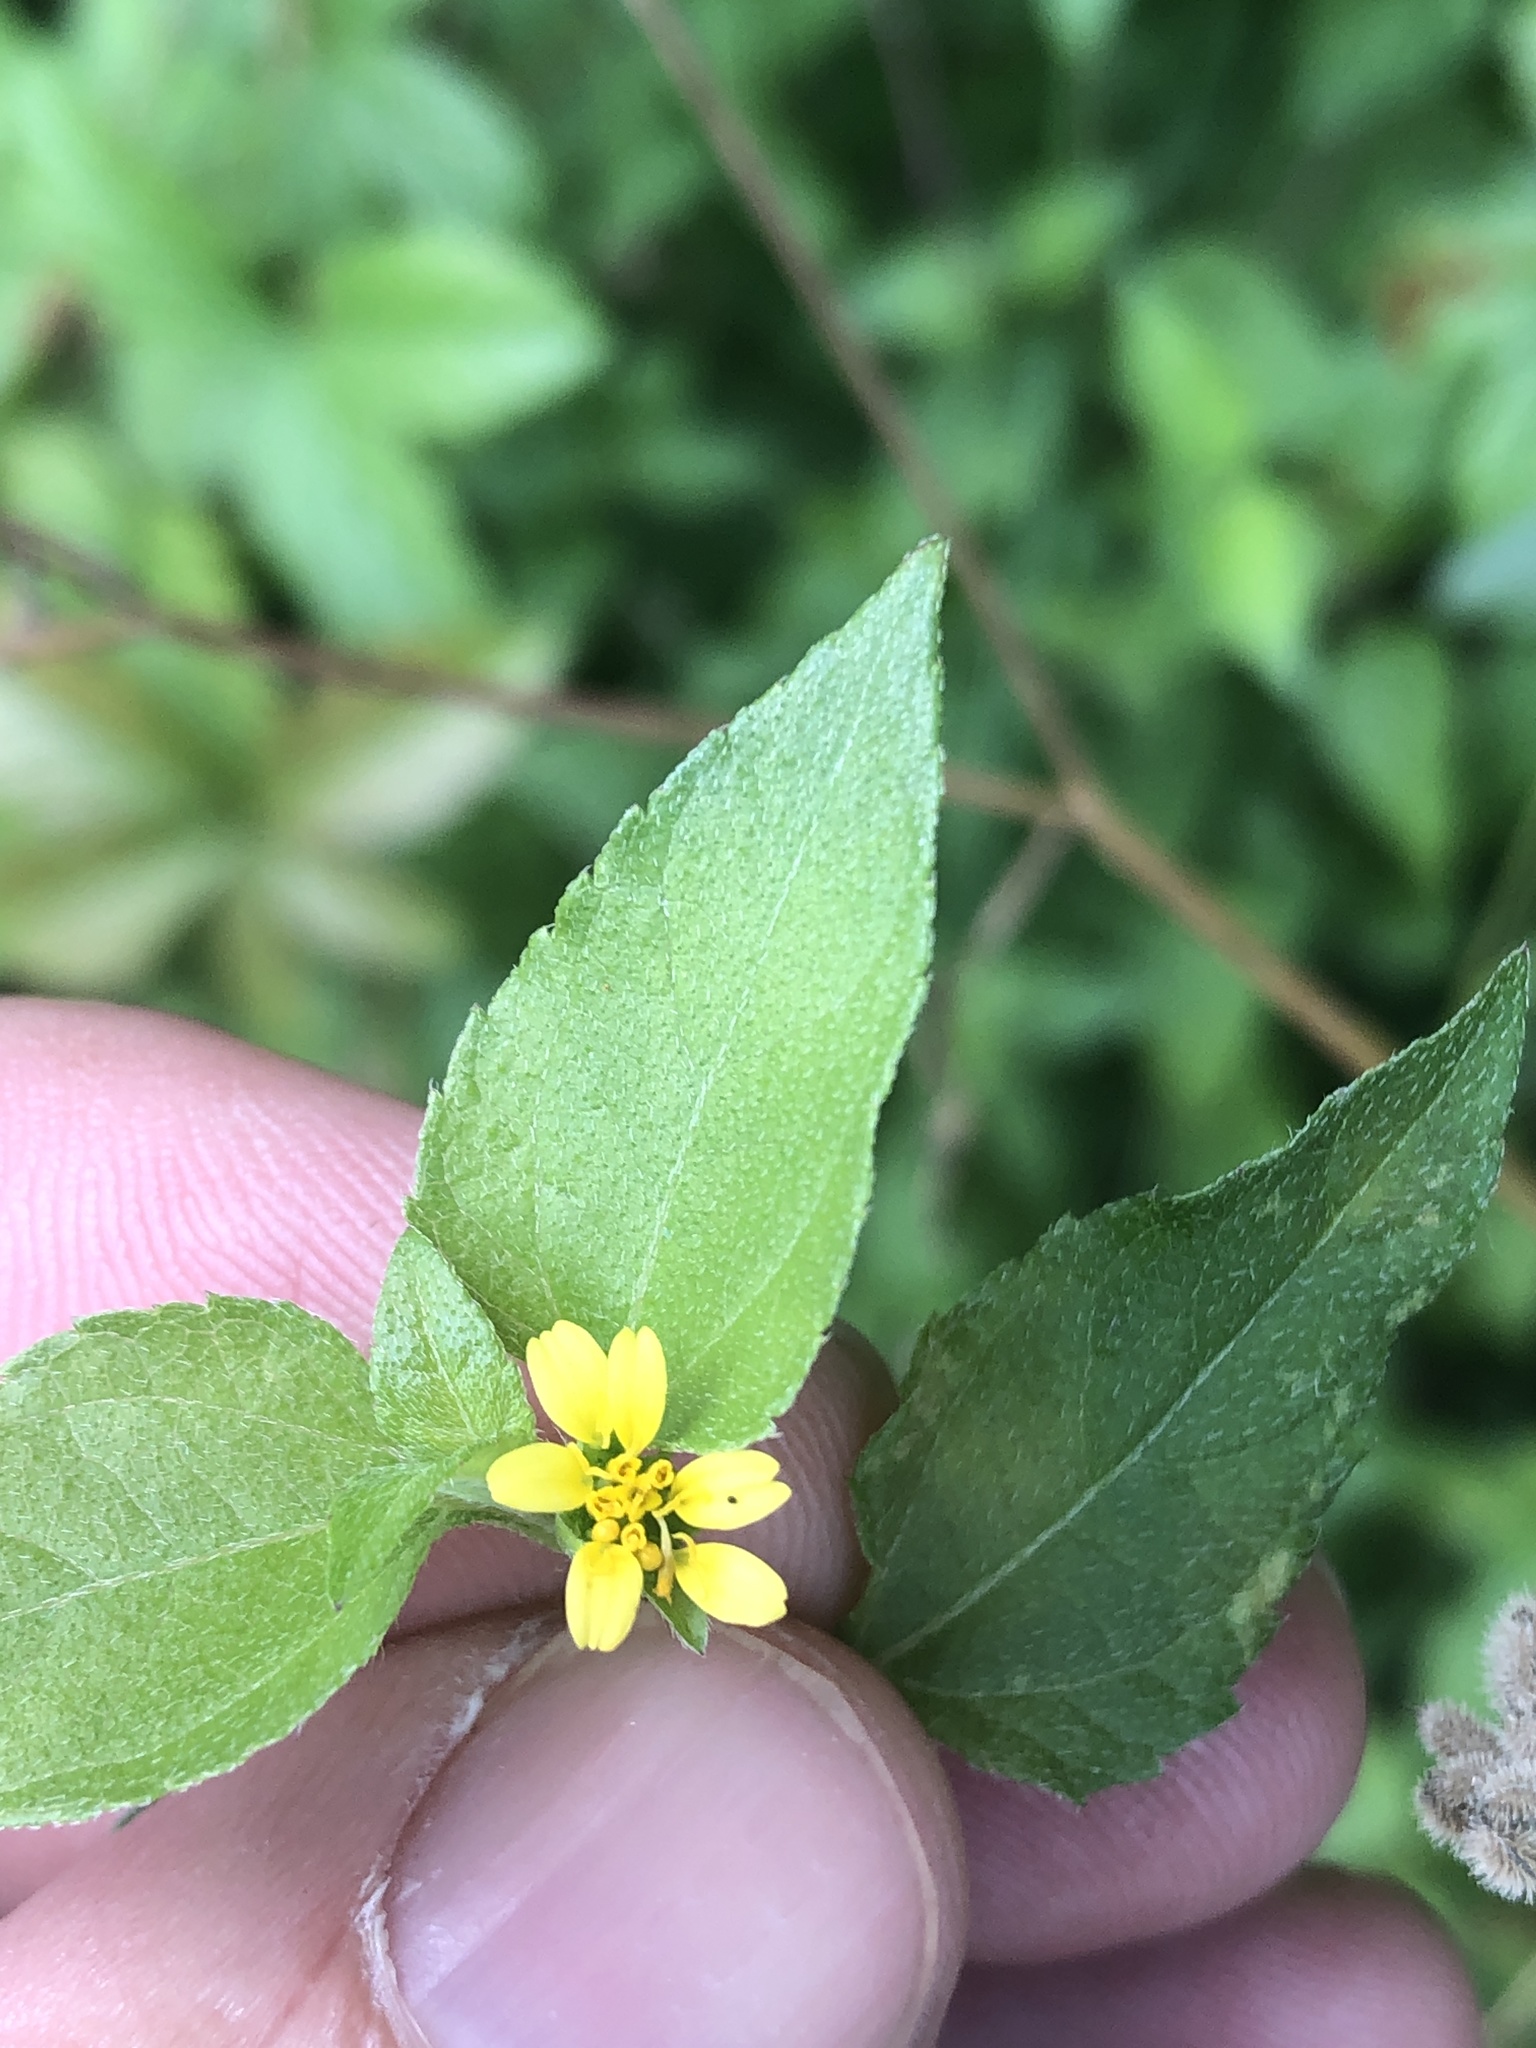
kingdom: Plantae
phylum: Tracheophyta
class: Magnoliopsida
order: Asterales
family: Asteraceae
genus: Calyptocarpus
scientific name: Calyptocarpus vialis
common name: Straggler daisy
